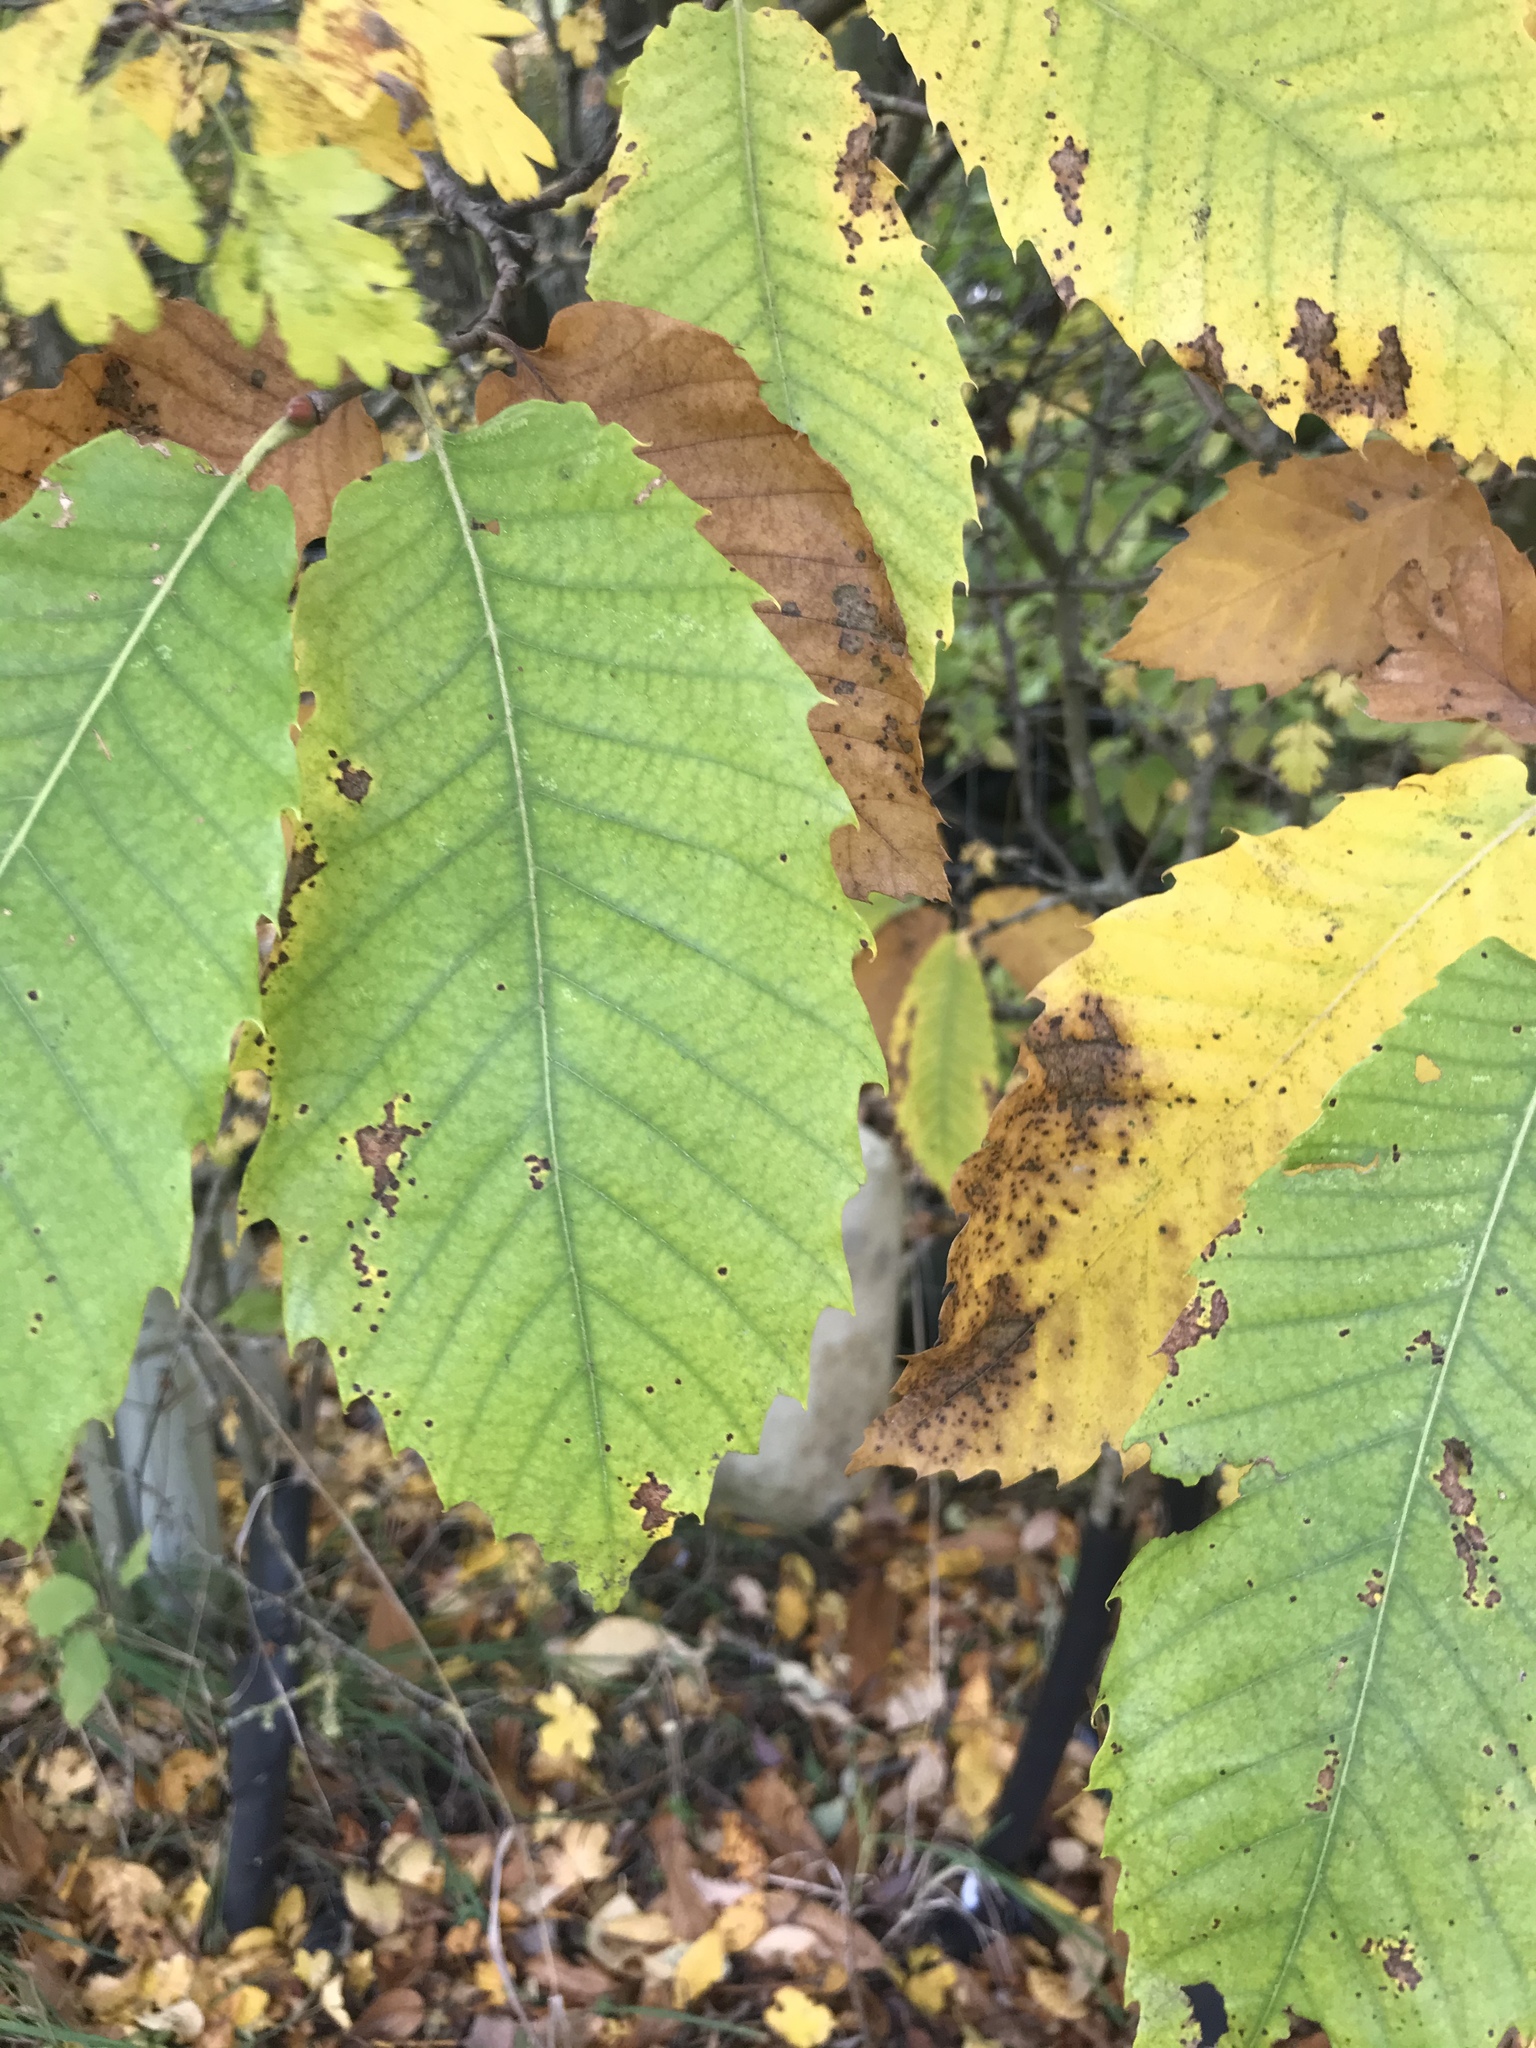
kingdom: Plantae
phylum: Tracheophyta
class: Magnoliopsida
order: Fagales
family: Fagaceae
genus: Castanea
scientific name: Castanea sativa
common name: Sweet chestnut
